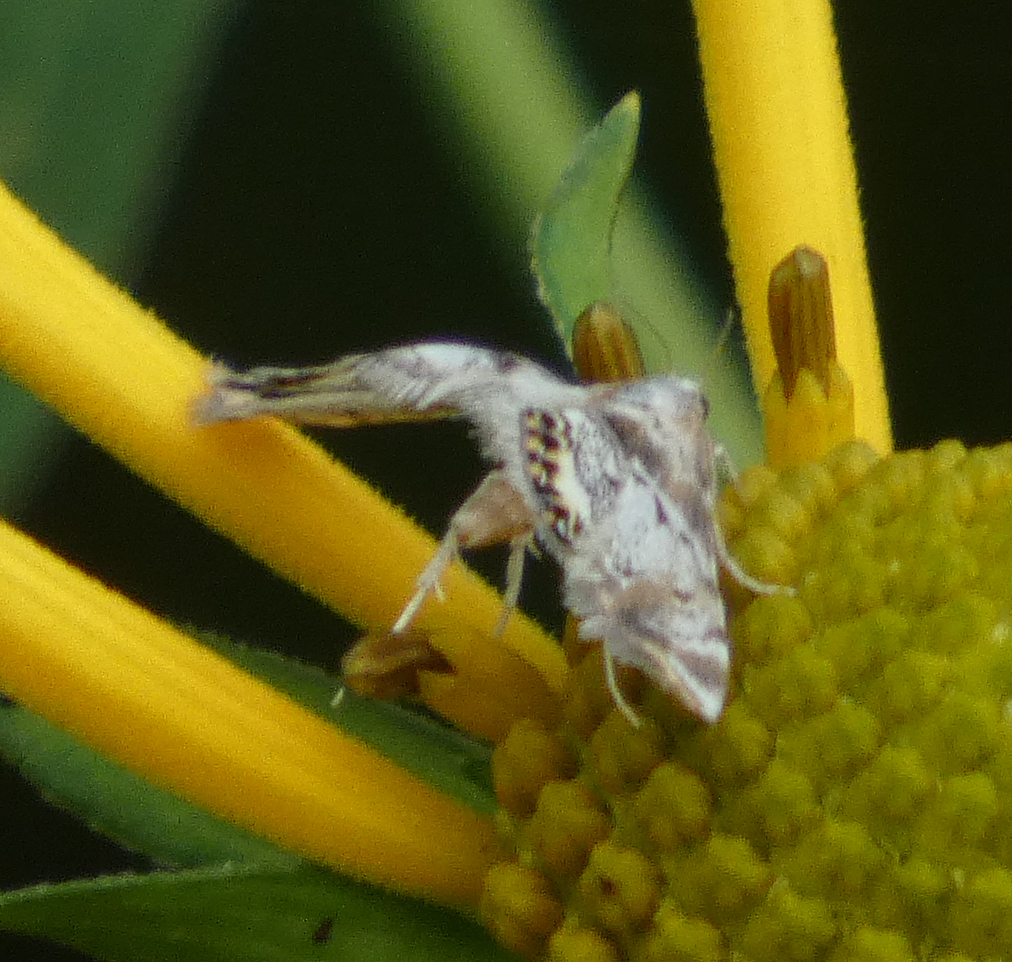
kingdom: Animalia
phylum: Arthropoda
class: Insecta
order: Lepidoptera
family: Crambidae
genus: Petrophila
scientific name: Petrophila fulicalis
